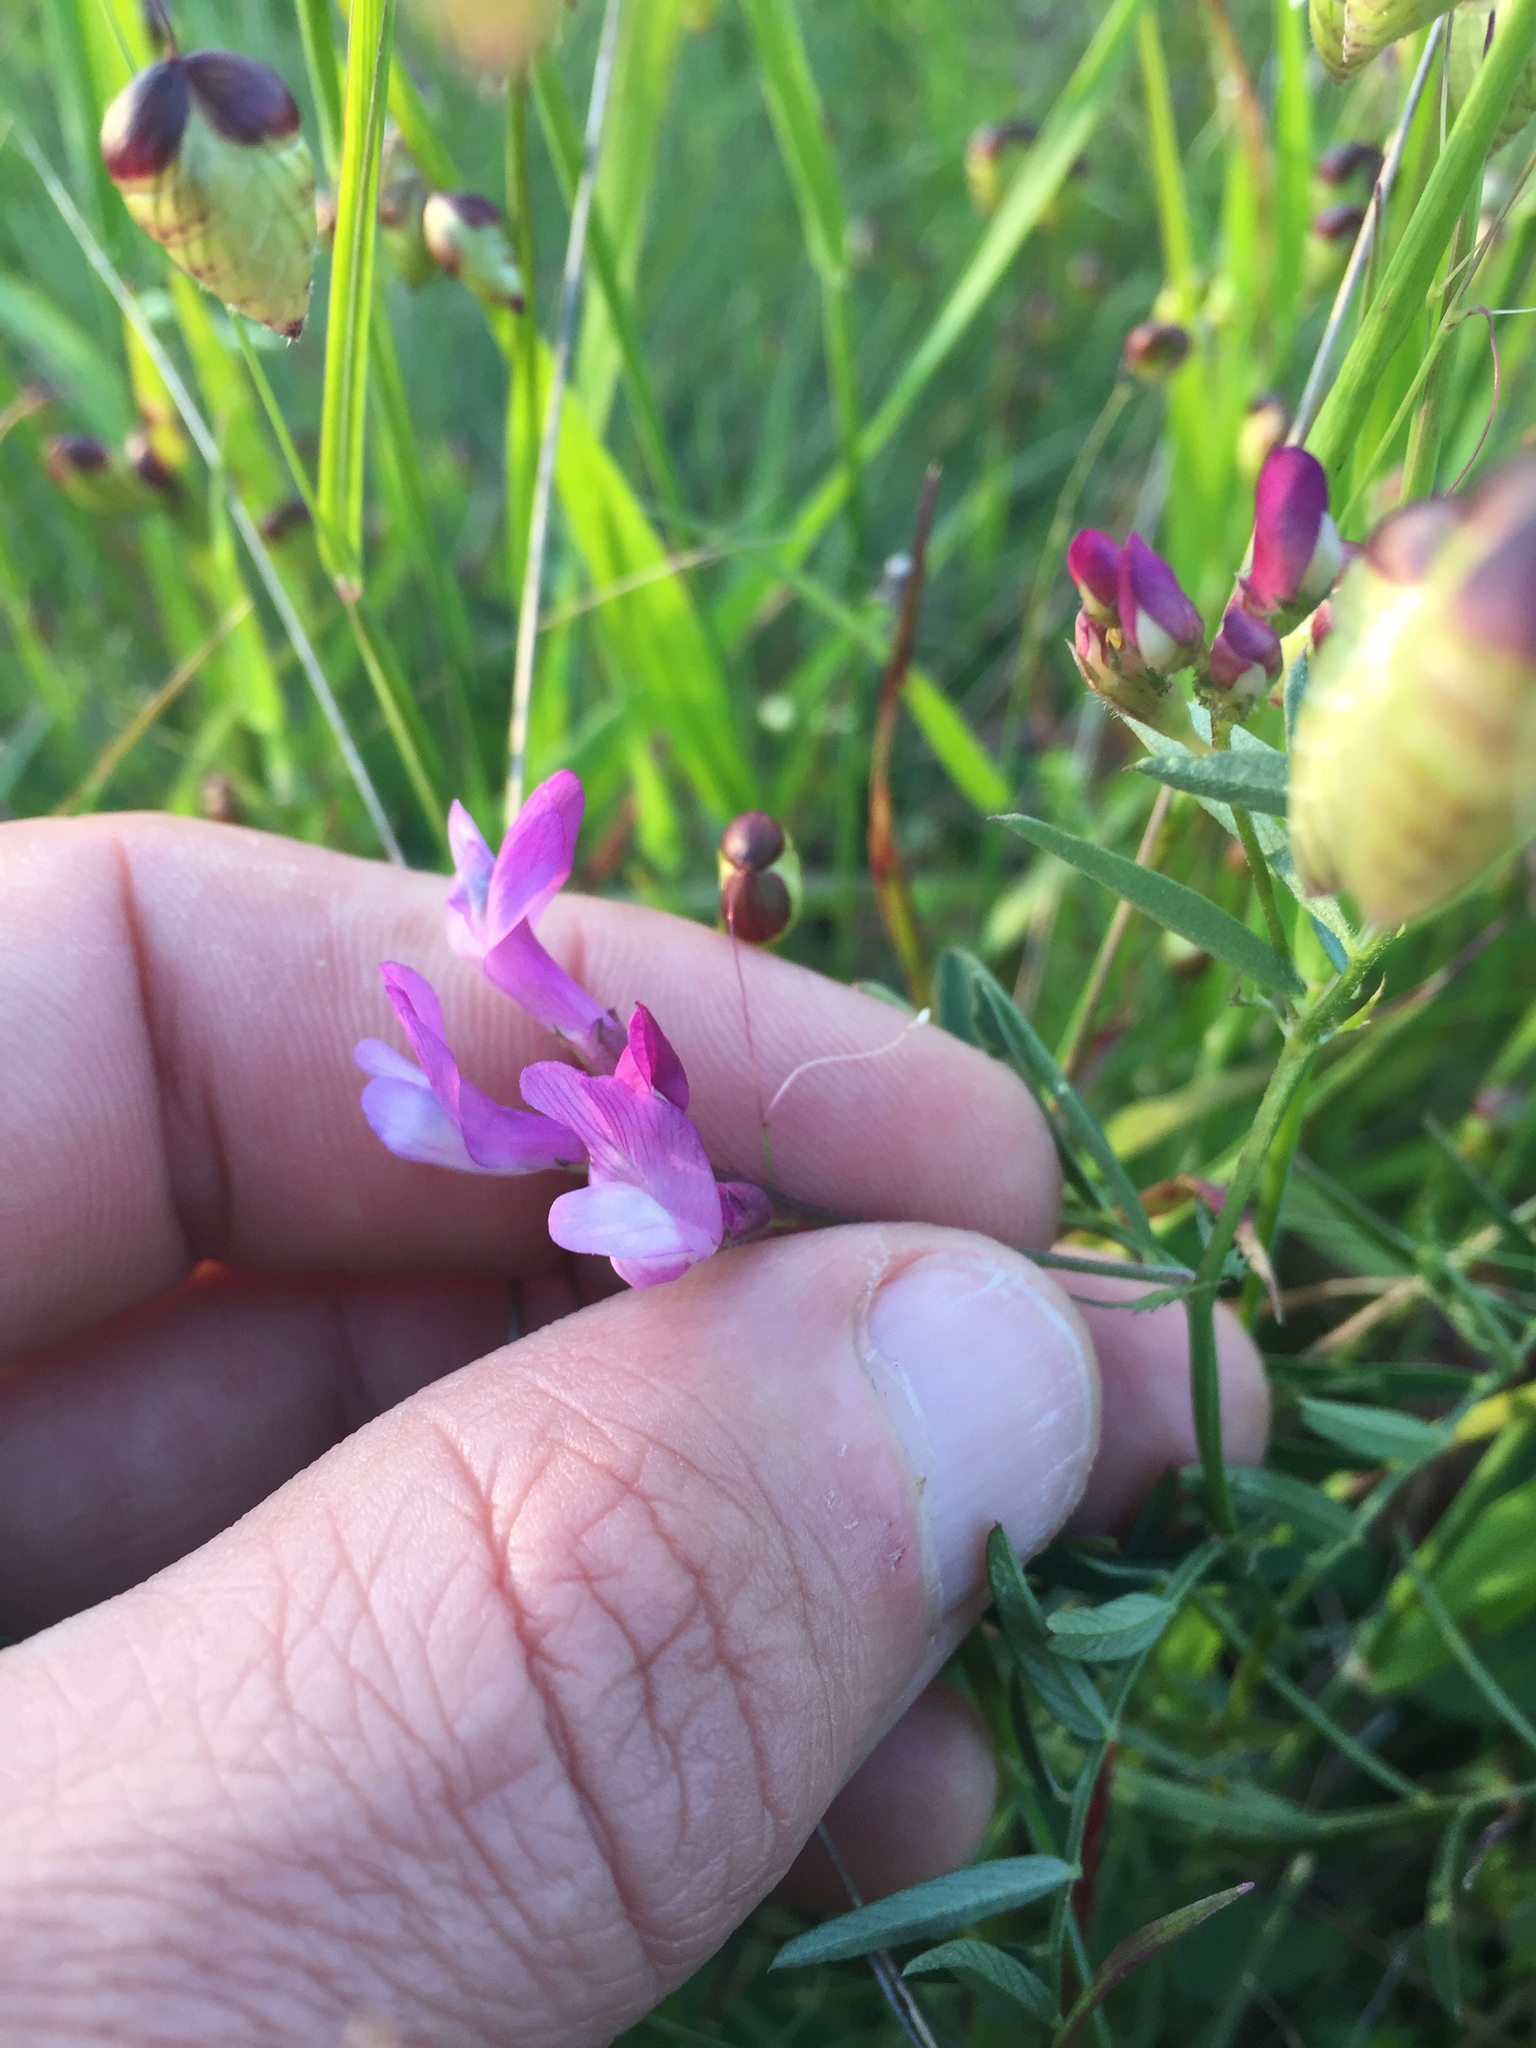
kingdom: Plantae
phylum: Tracheophyta
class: Magnoliopsida
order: Fabales
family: Fabaceae
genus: Vicia
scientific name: Vicia americana
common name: American vetch
